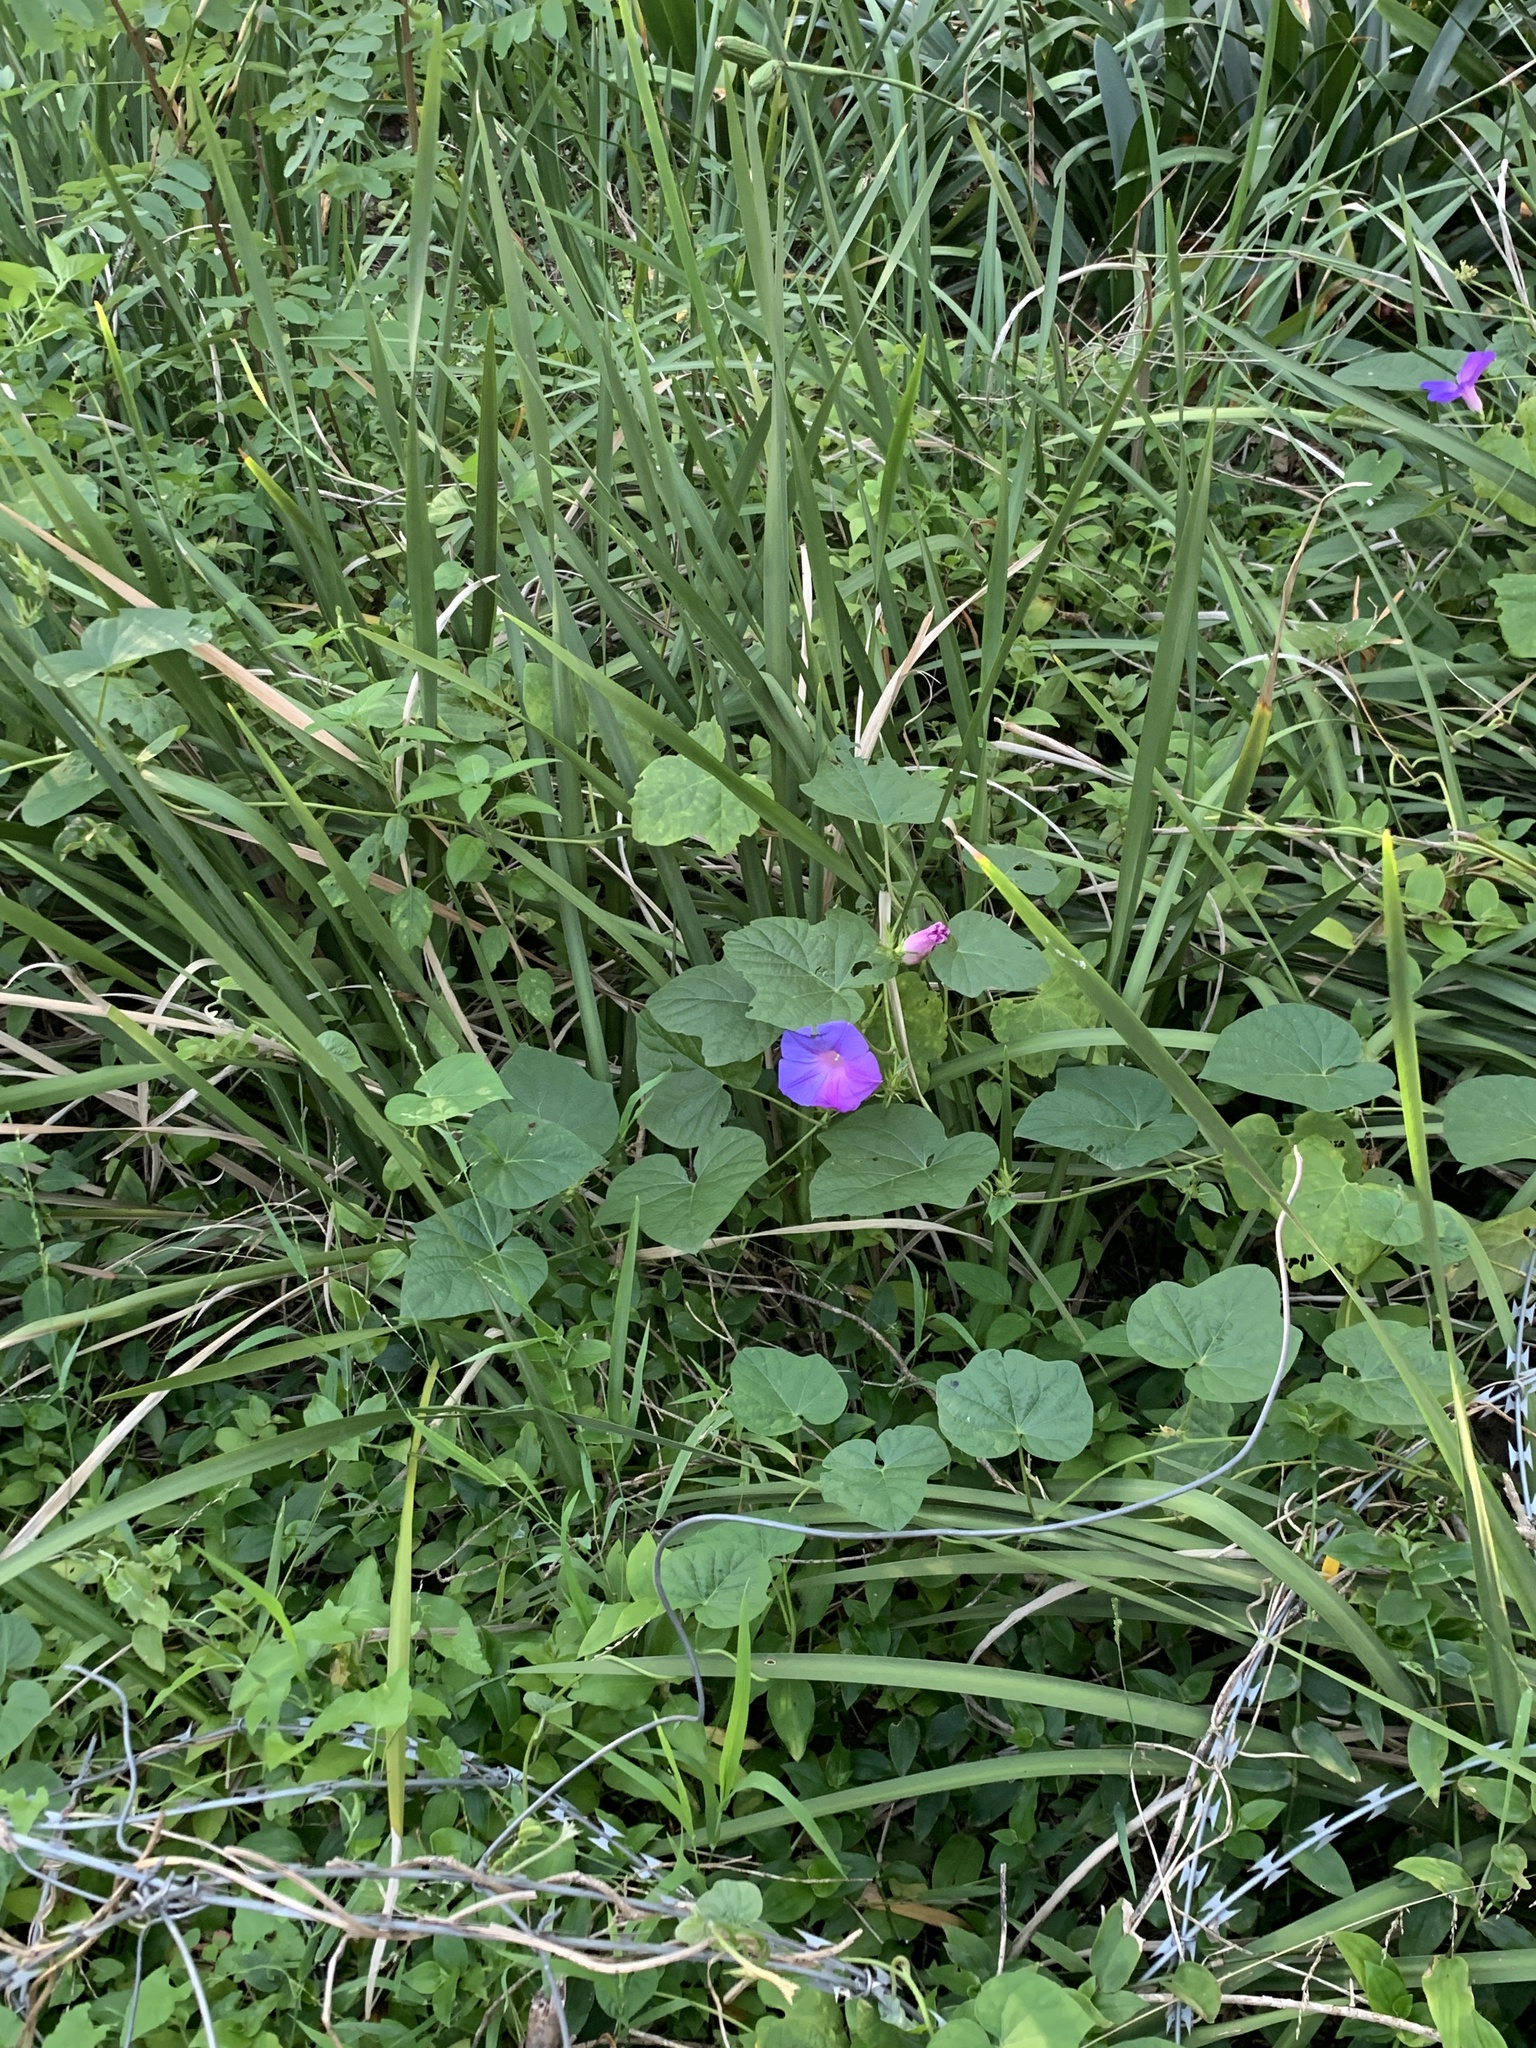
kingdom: Plantae
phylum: Tracheophyta
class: Magnoliopsida
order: Solanales
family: Convolvulaceae
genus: Ipomoea
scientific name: Ipomoea indica
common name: Blue dawnflower
